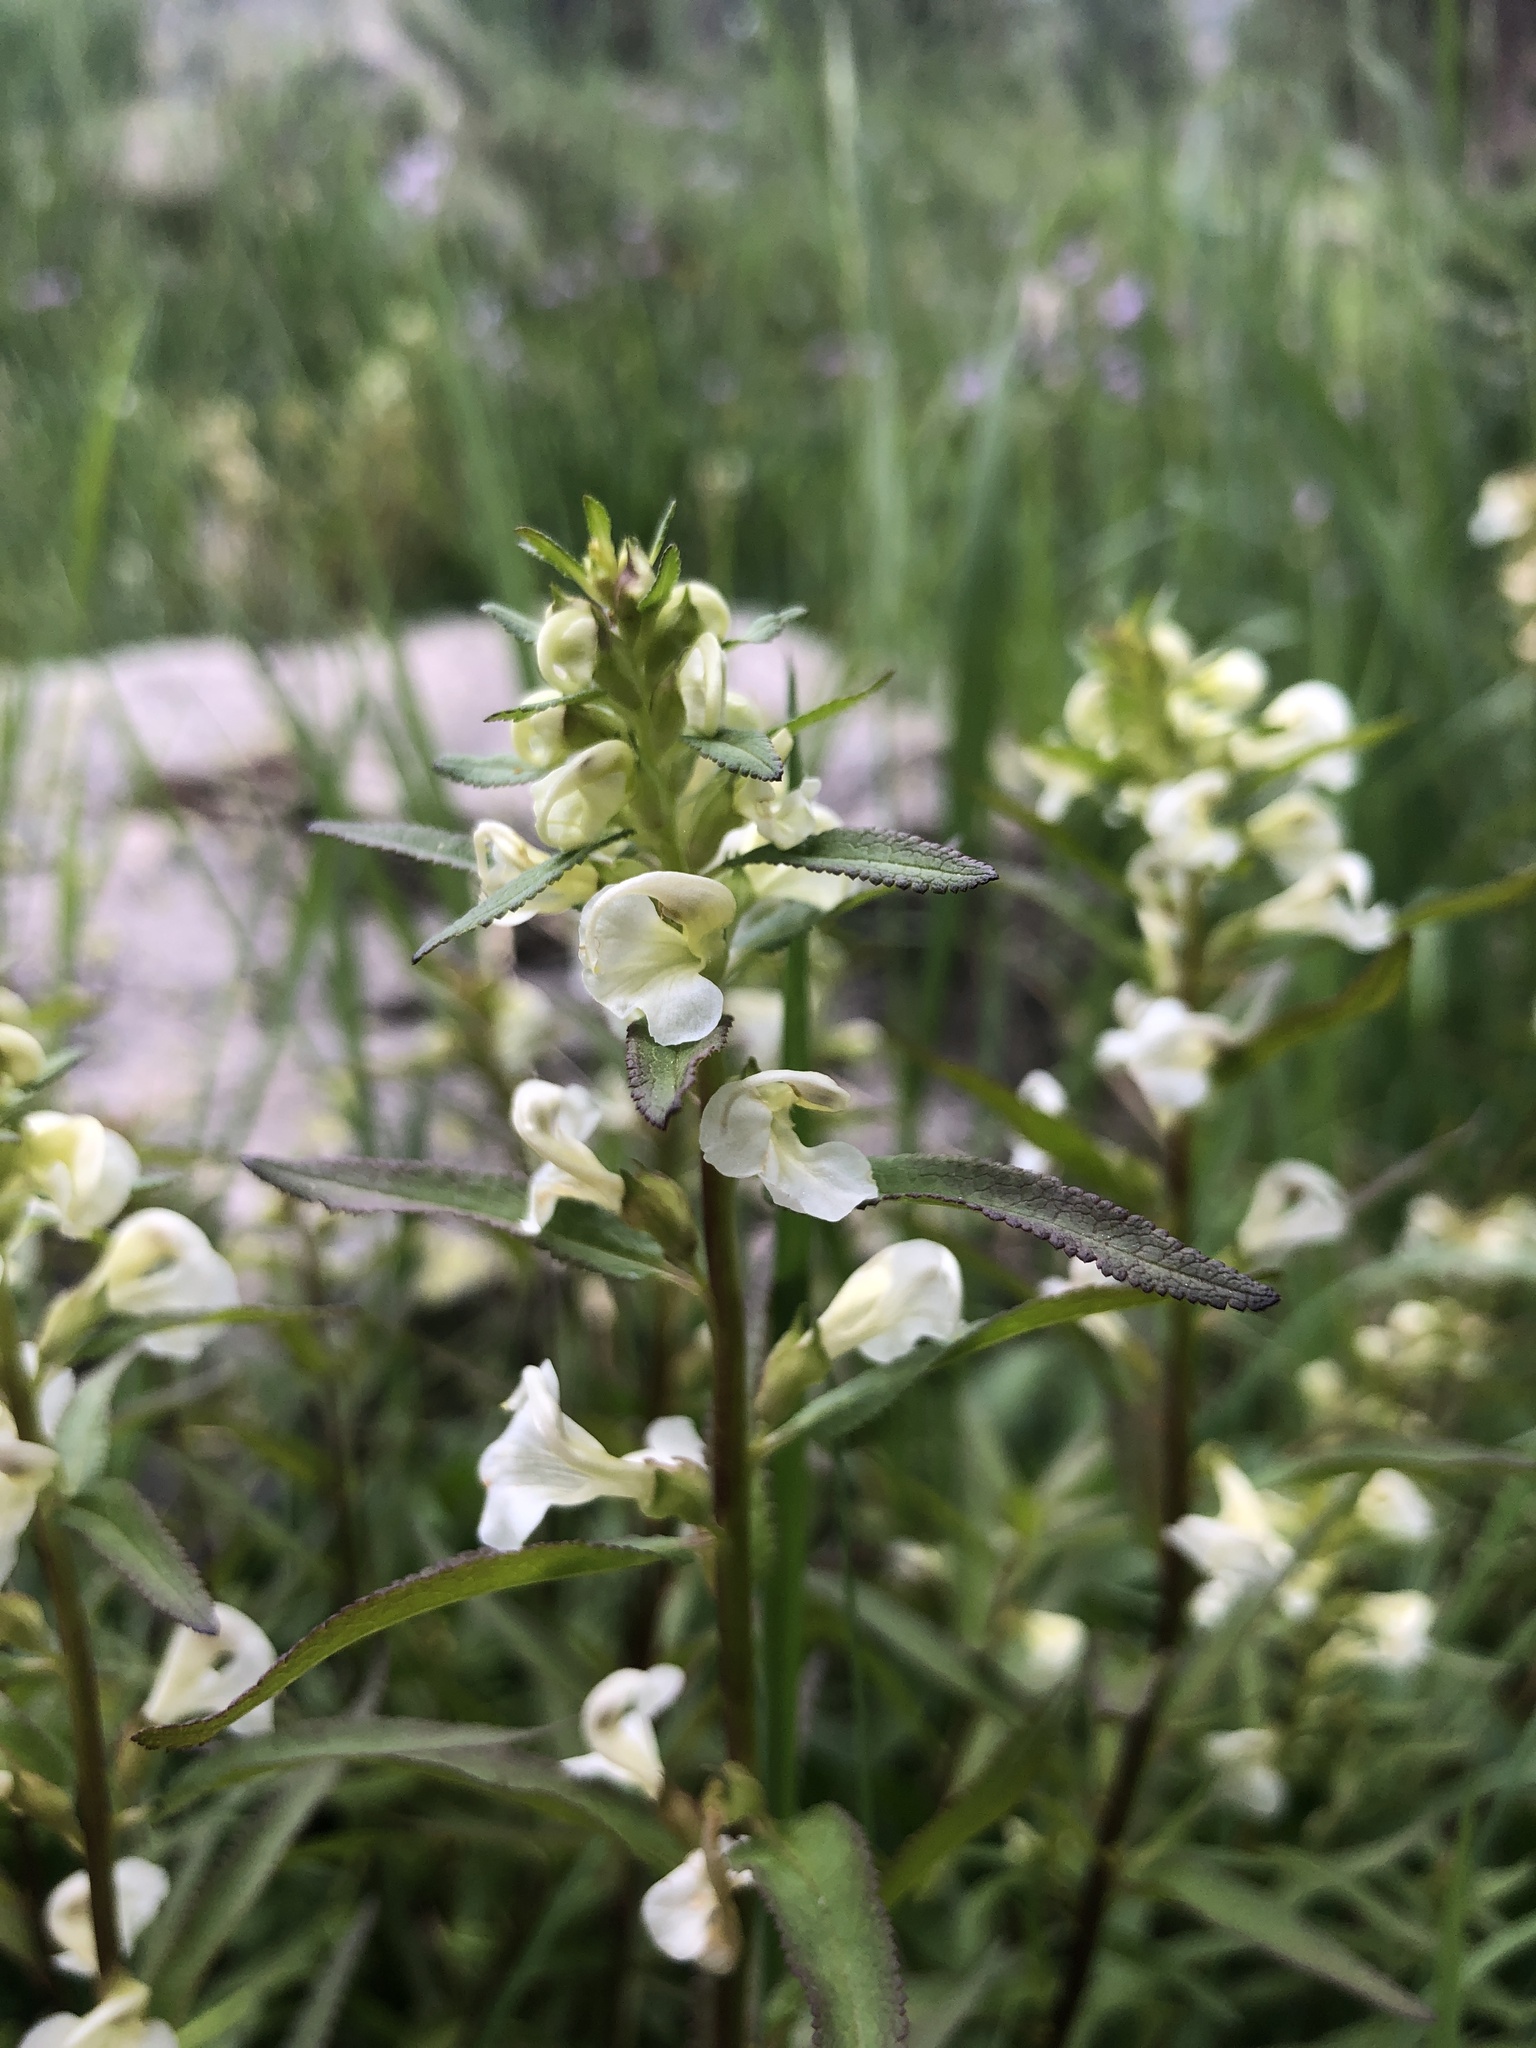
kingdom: Plantae
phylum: Tracheophyta
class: Magnoliopsida
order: Lamiales
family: Orobanchaceae
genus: Pedicularis
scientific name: Pedicularis racemosa
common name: Leafy lousewort
